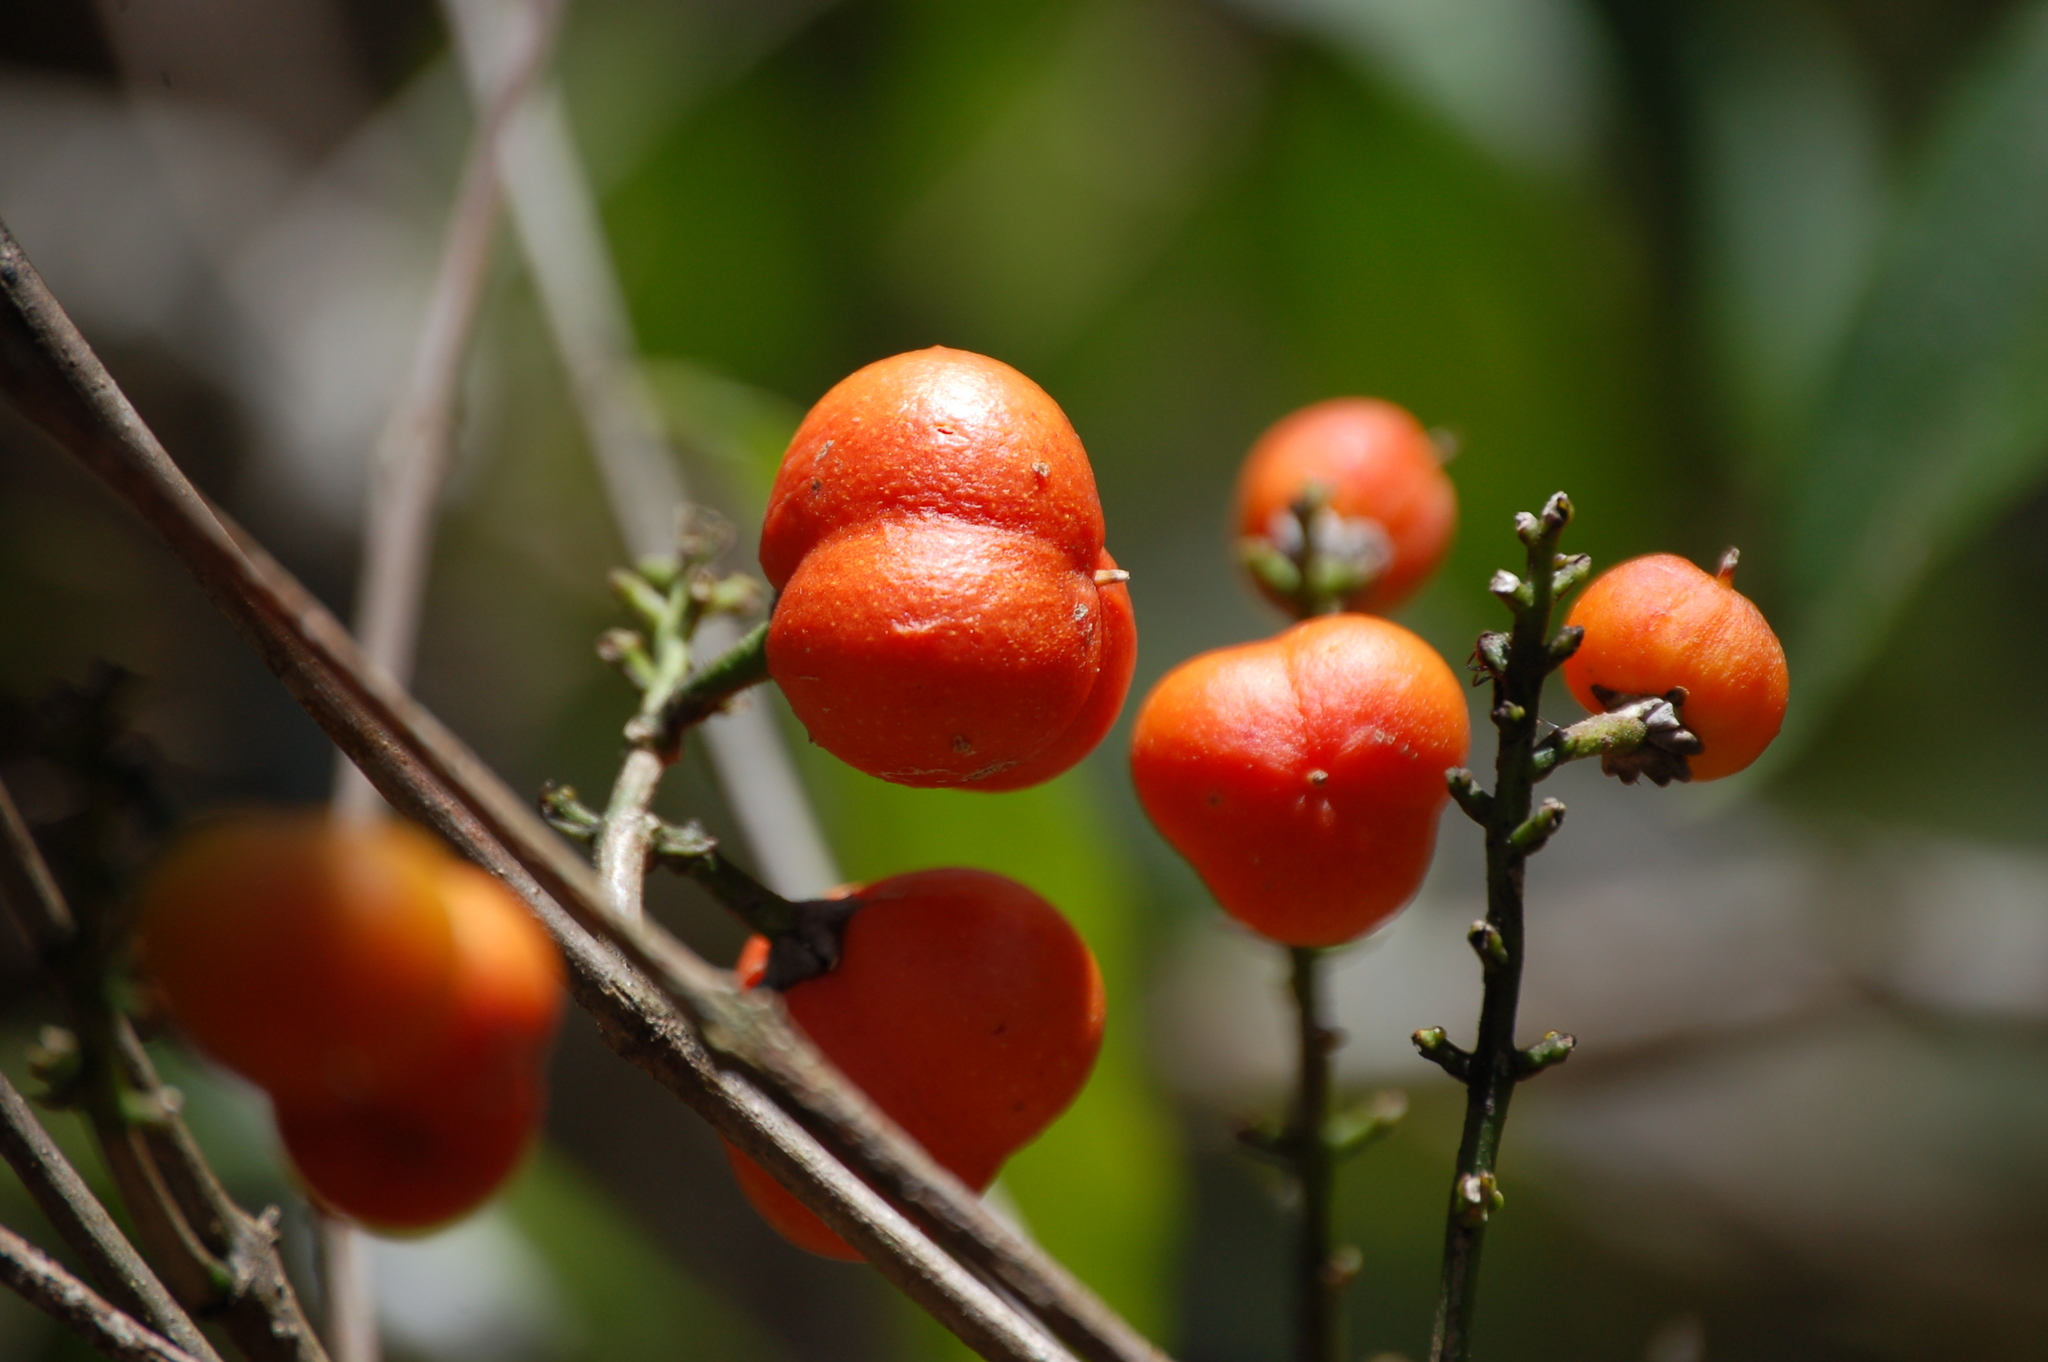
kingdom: Plantae
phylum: Tracheophyta
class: Magnoliopsida
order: Malpighiales
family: Malpighiaceae
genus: Bunchosia
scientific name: Bunchosia biocellata
